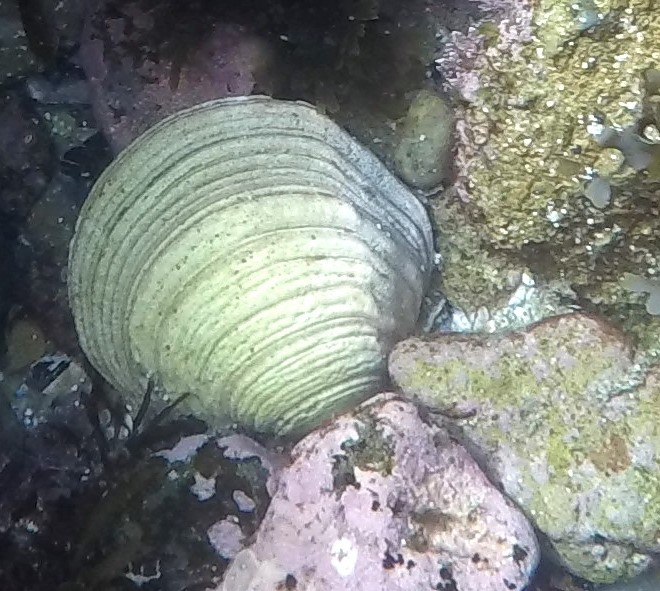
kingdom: Animalia
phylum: Mollusca
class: Bivalvia
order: Cardiida
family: Semelidae
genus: Semele
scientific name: Semele decisa
